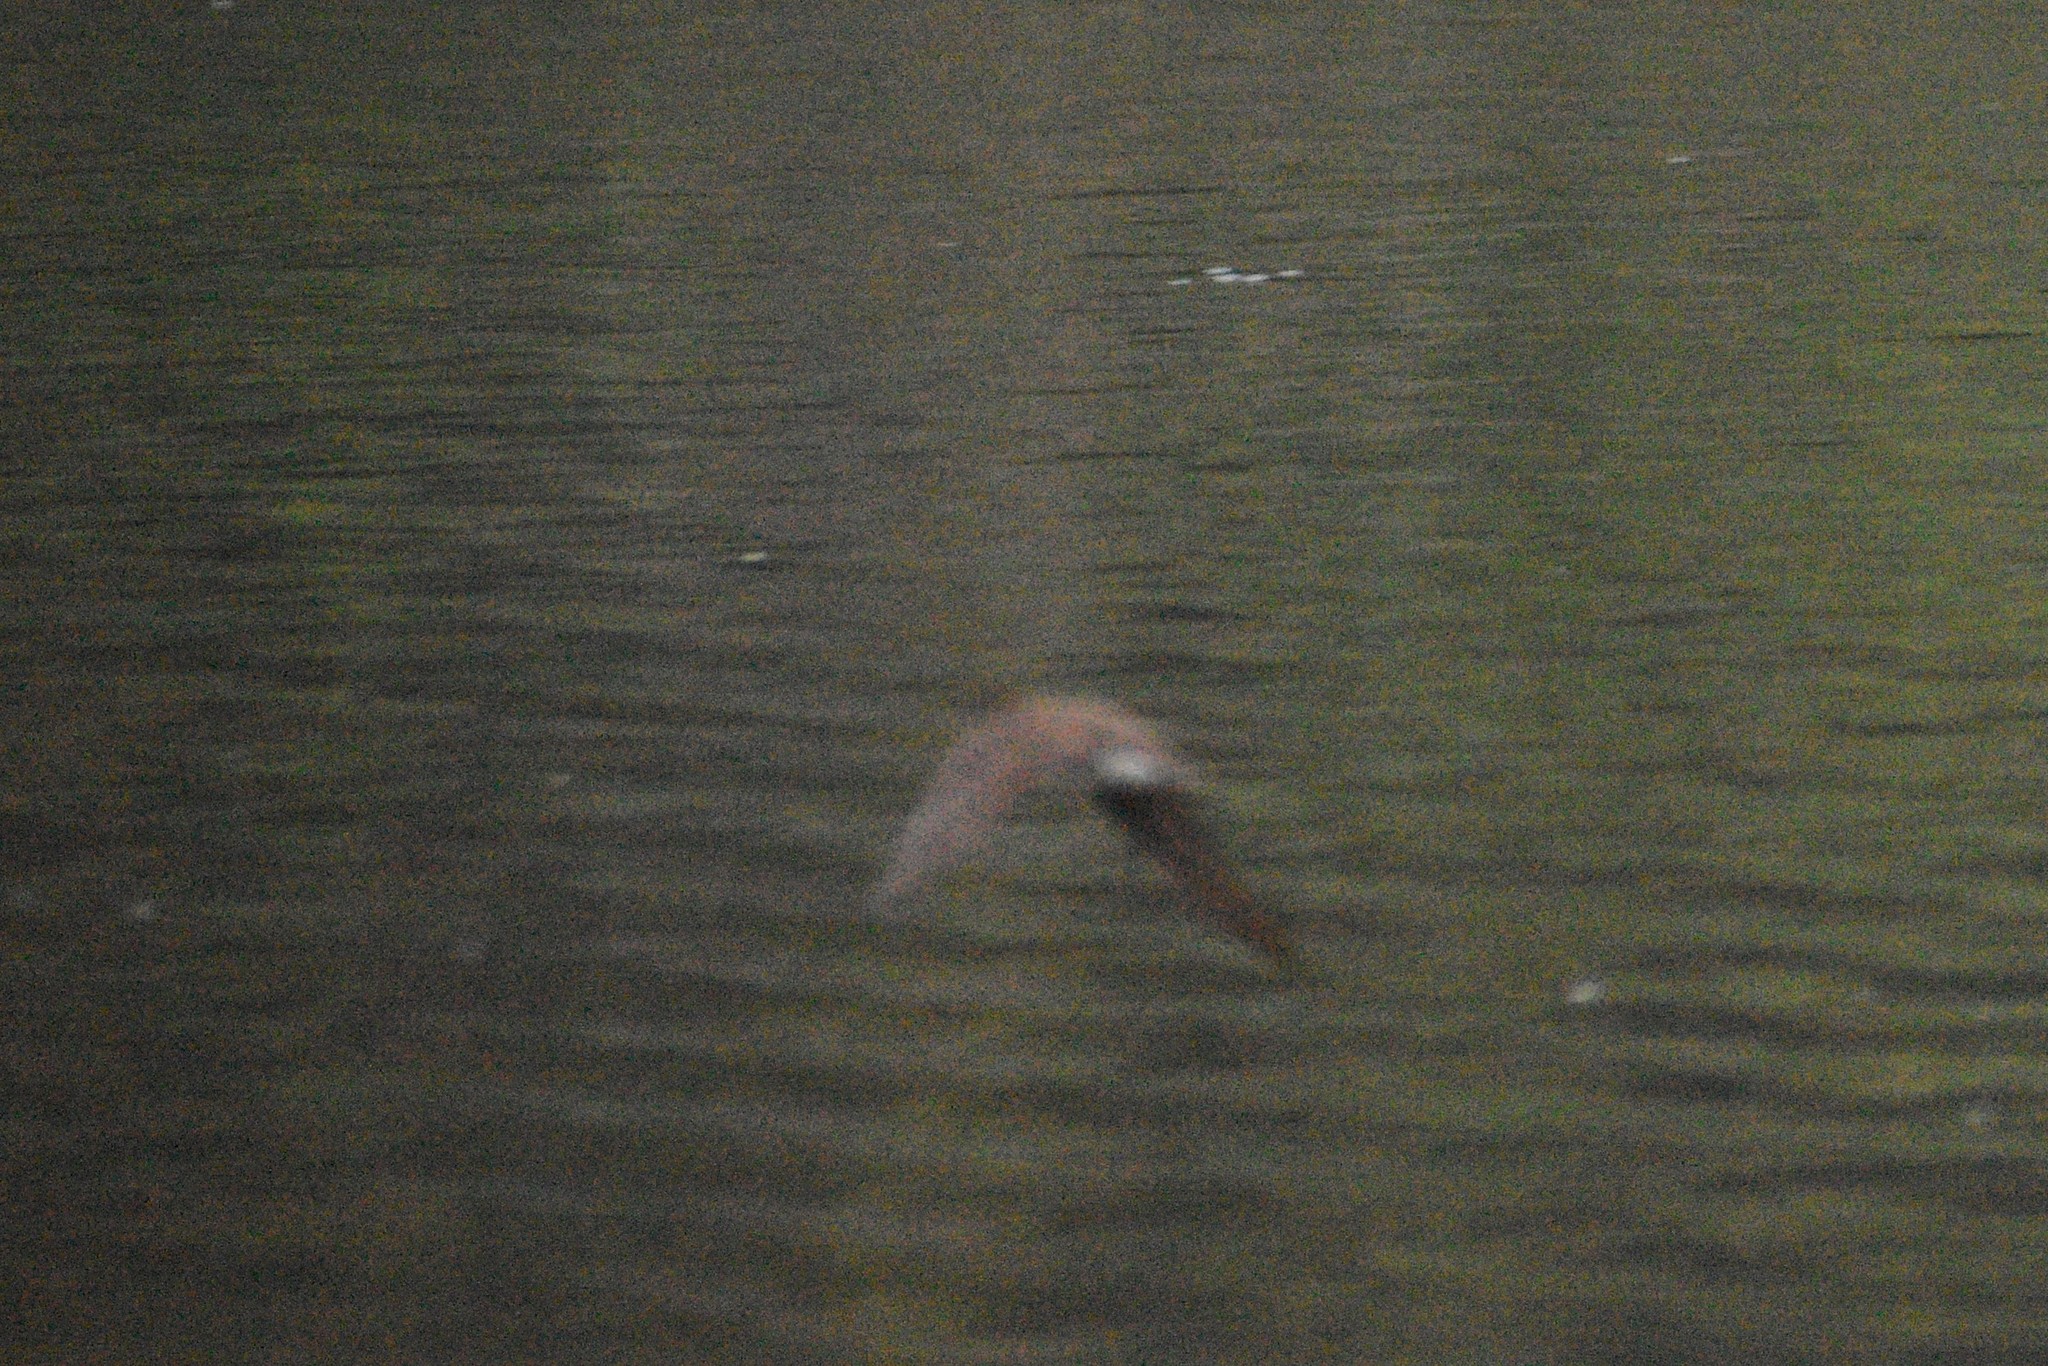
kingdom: Animalia
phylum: Chordata
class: Aves
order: Passeriformes
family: Hirundinidae
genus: Stelgidopteryx
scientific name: Stelgidopteryx serripennis
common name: Northern rough-winged swallow
